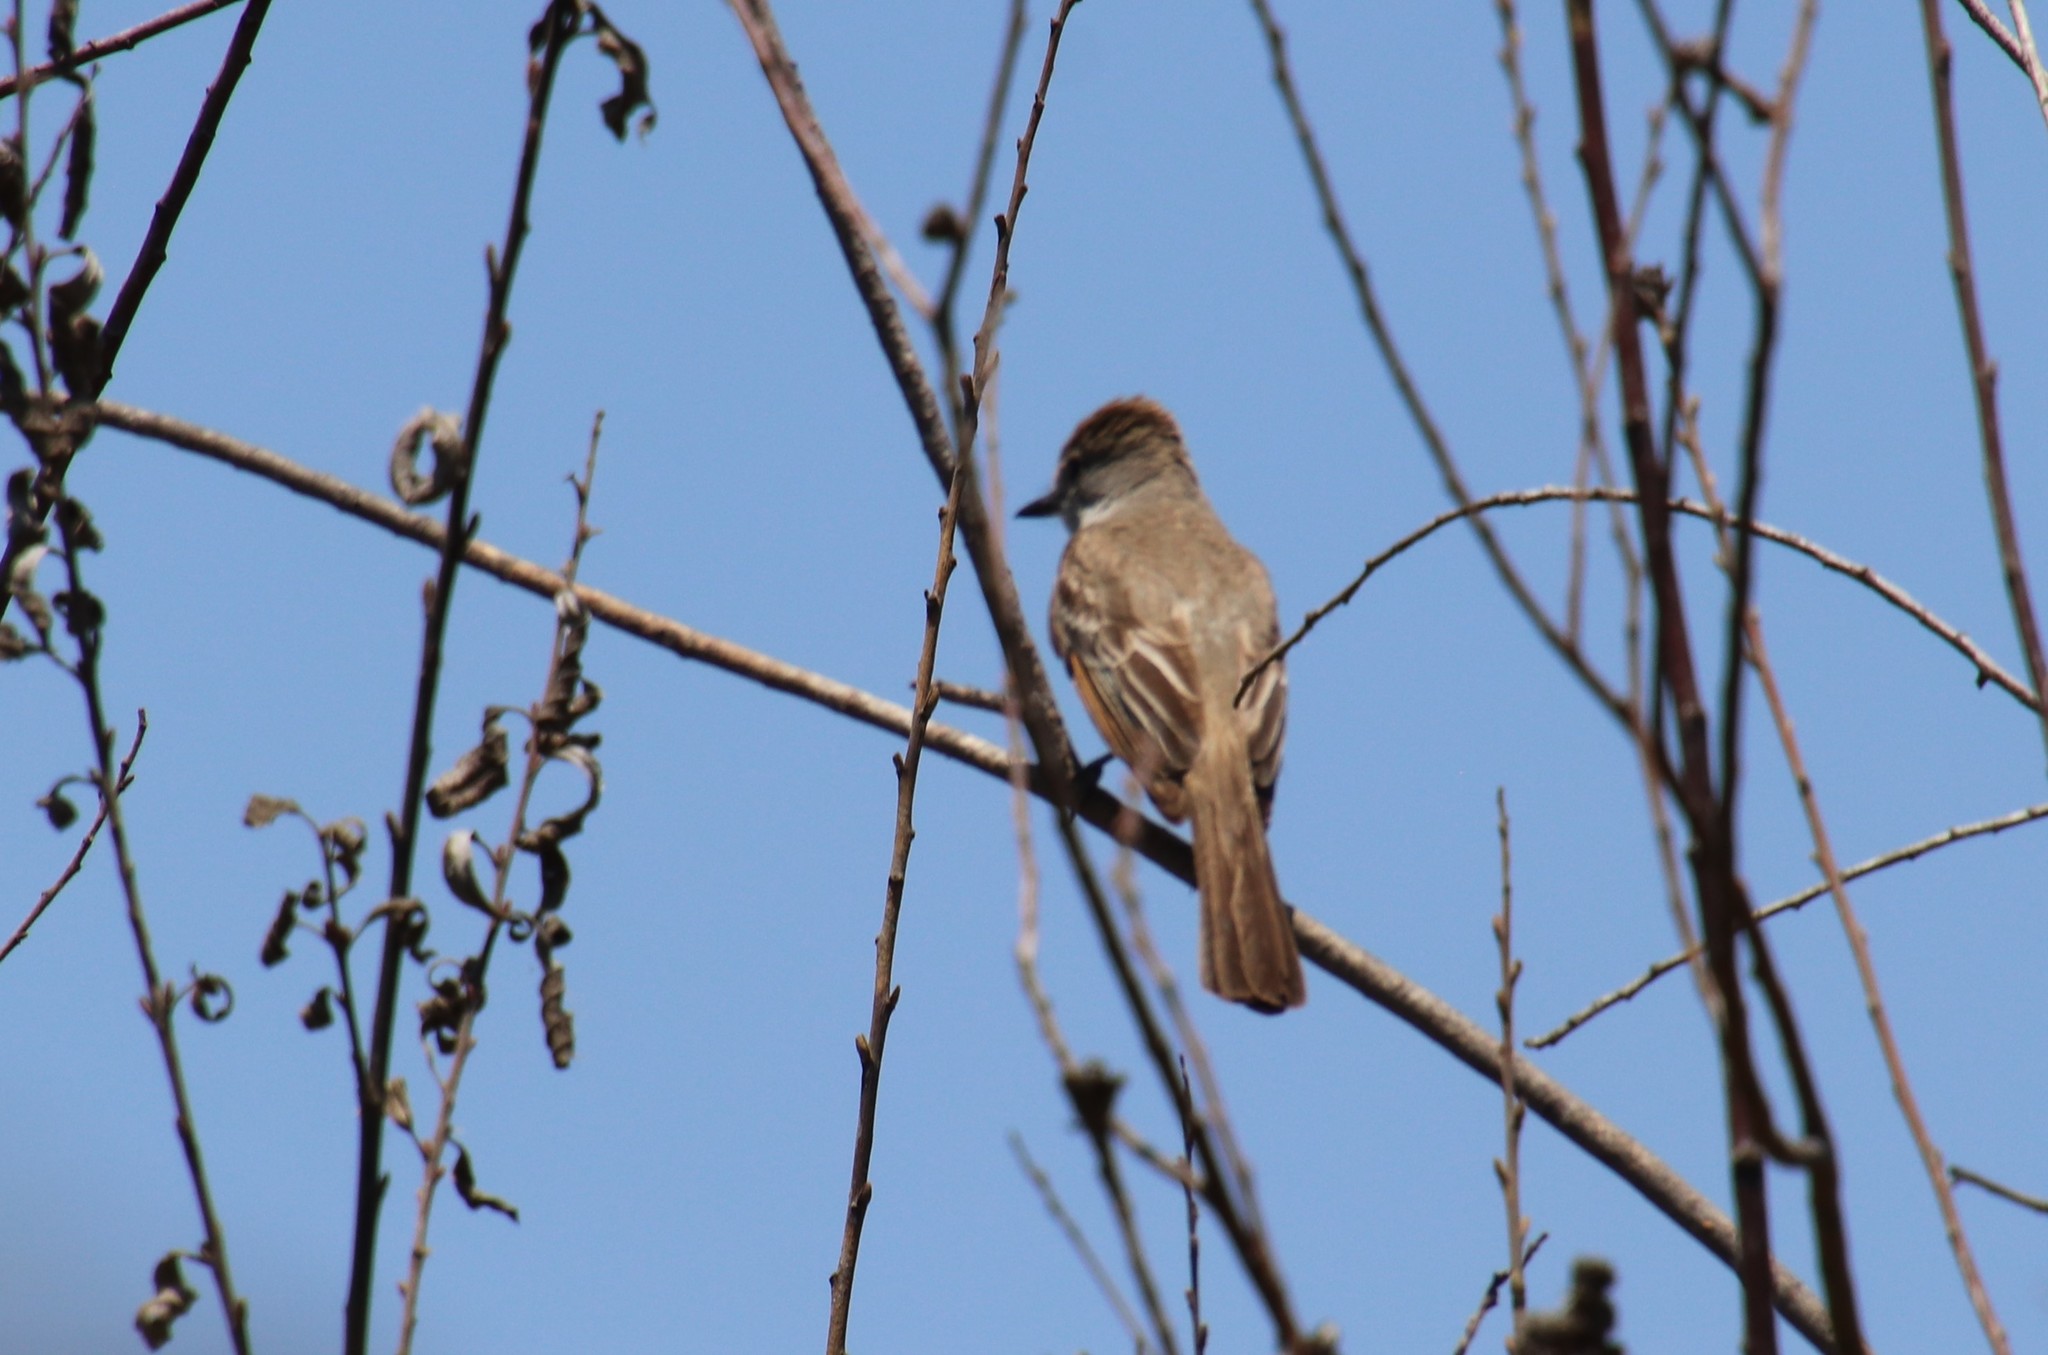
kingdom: Animalia
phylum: Chordata
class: Aves
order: Passeriformes
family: Tyrannidae
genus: Myiarchus
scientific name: Myiarchus cinerascens
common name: Ash-throated flycatcher
